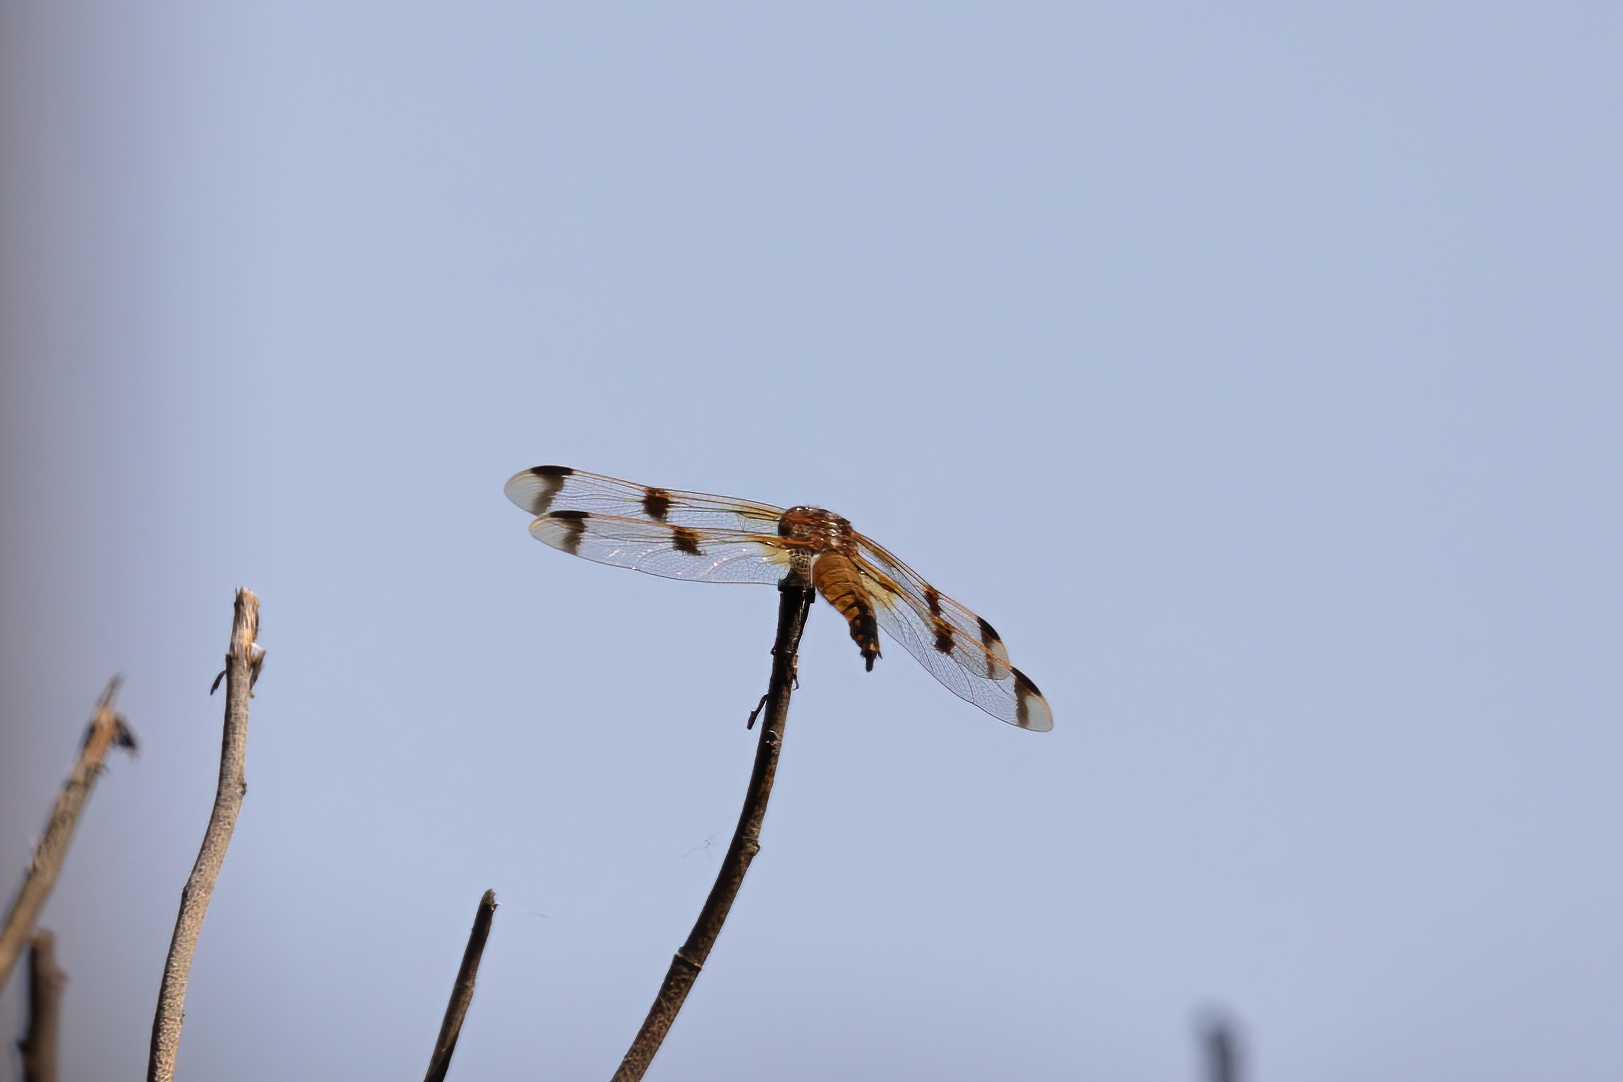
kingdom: Animalia
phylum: Arthropoda
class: Insecta
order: Odonata
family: Libellulidae
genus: Libellula
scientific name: Libellula semifasciata
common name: Painted skimmer
